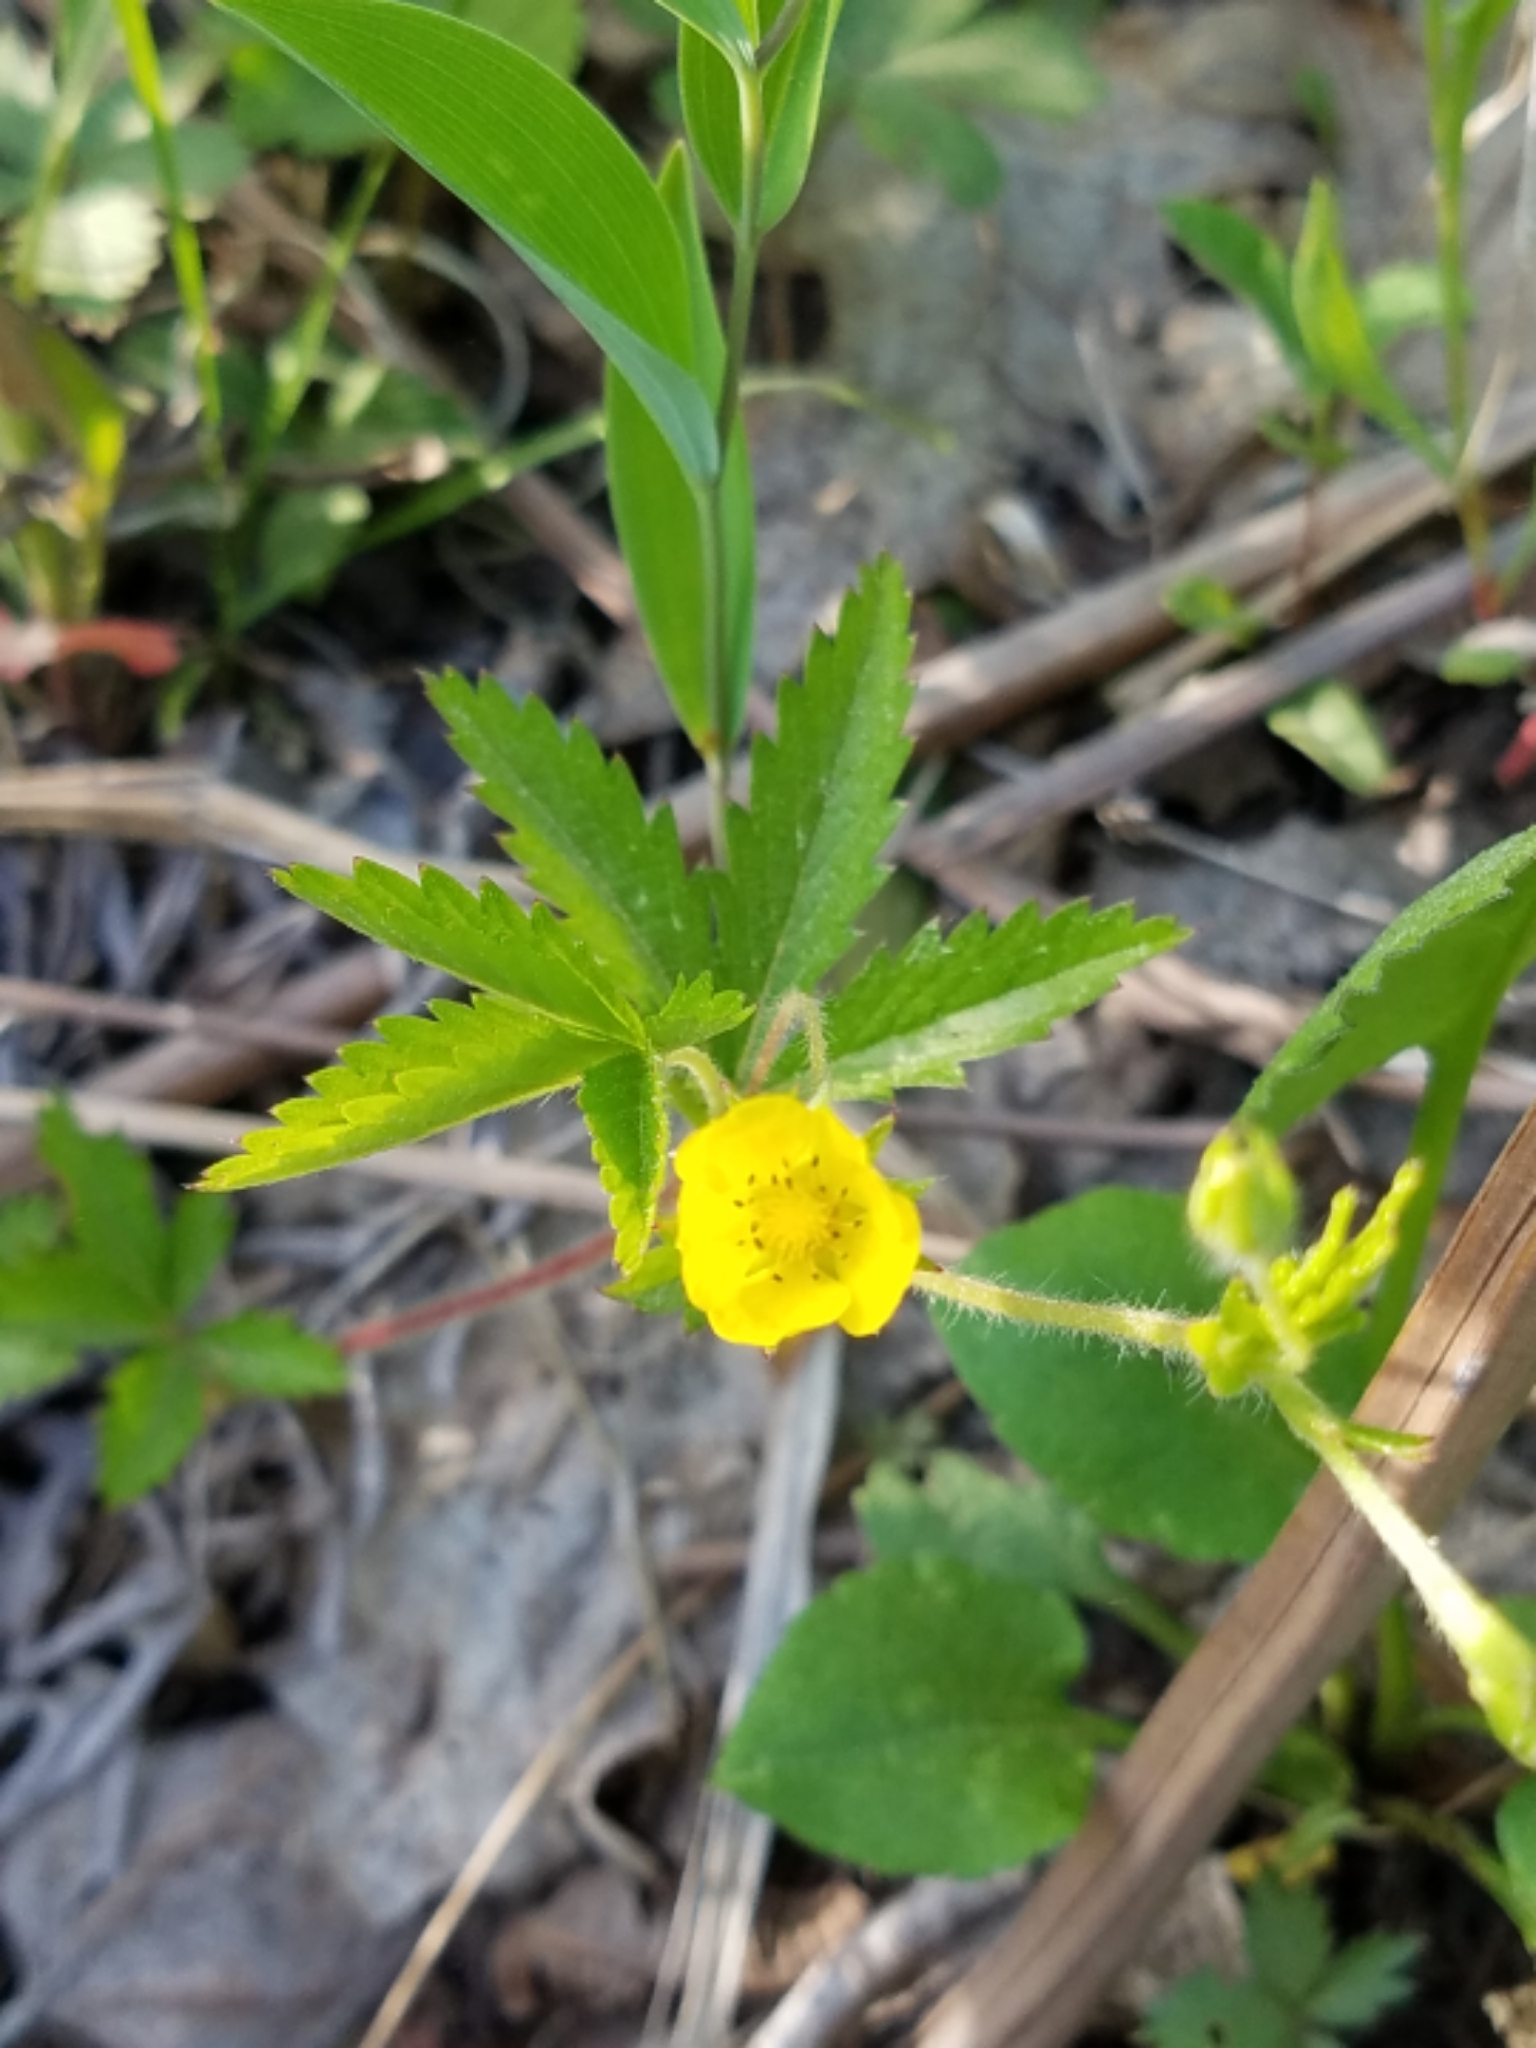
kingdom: Plantae
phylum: Tracheophyta
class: Magnoliopsida
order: Rosales
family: Rosaceae
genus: Potentilla
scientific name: Potentilla simplex
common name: Old field cinquefoil
